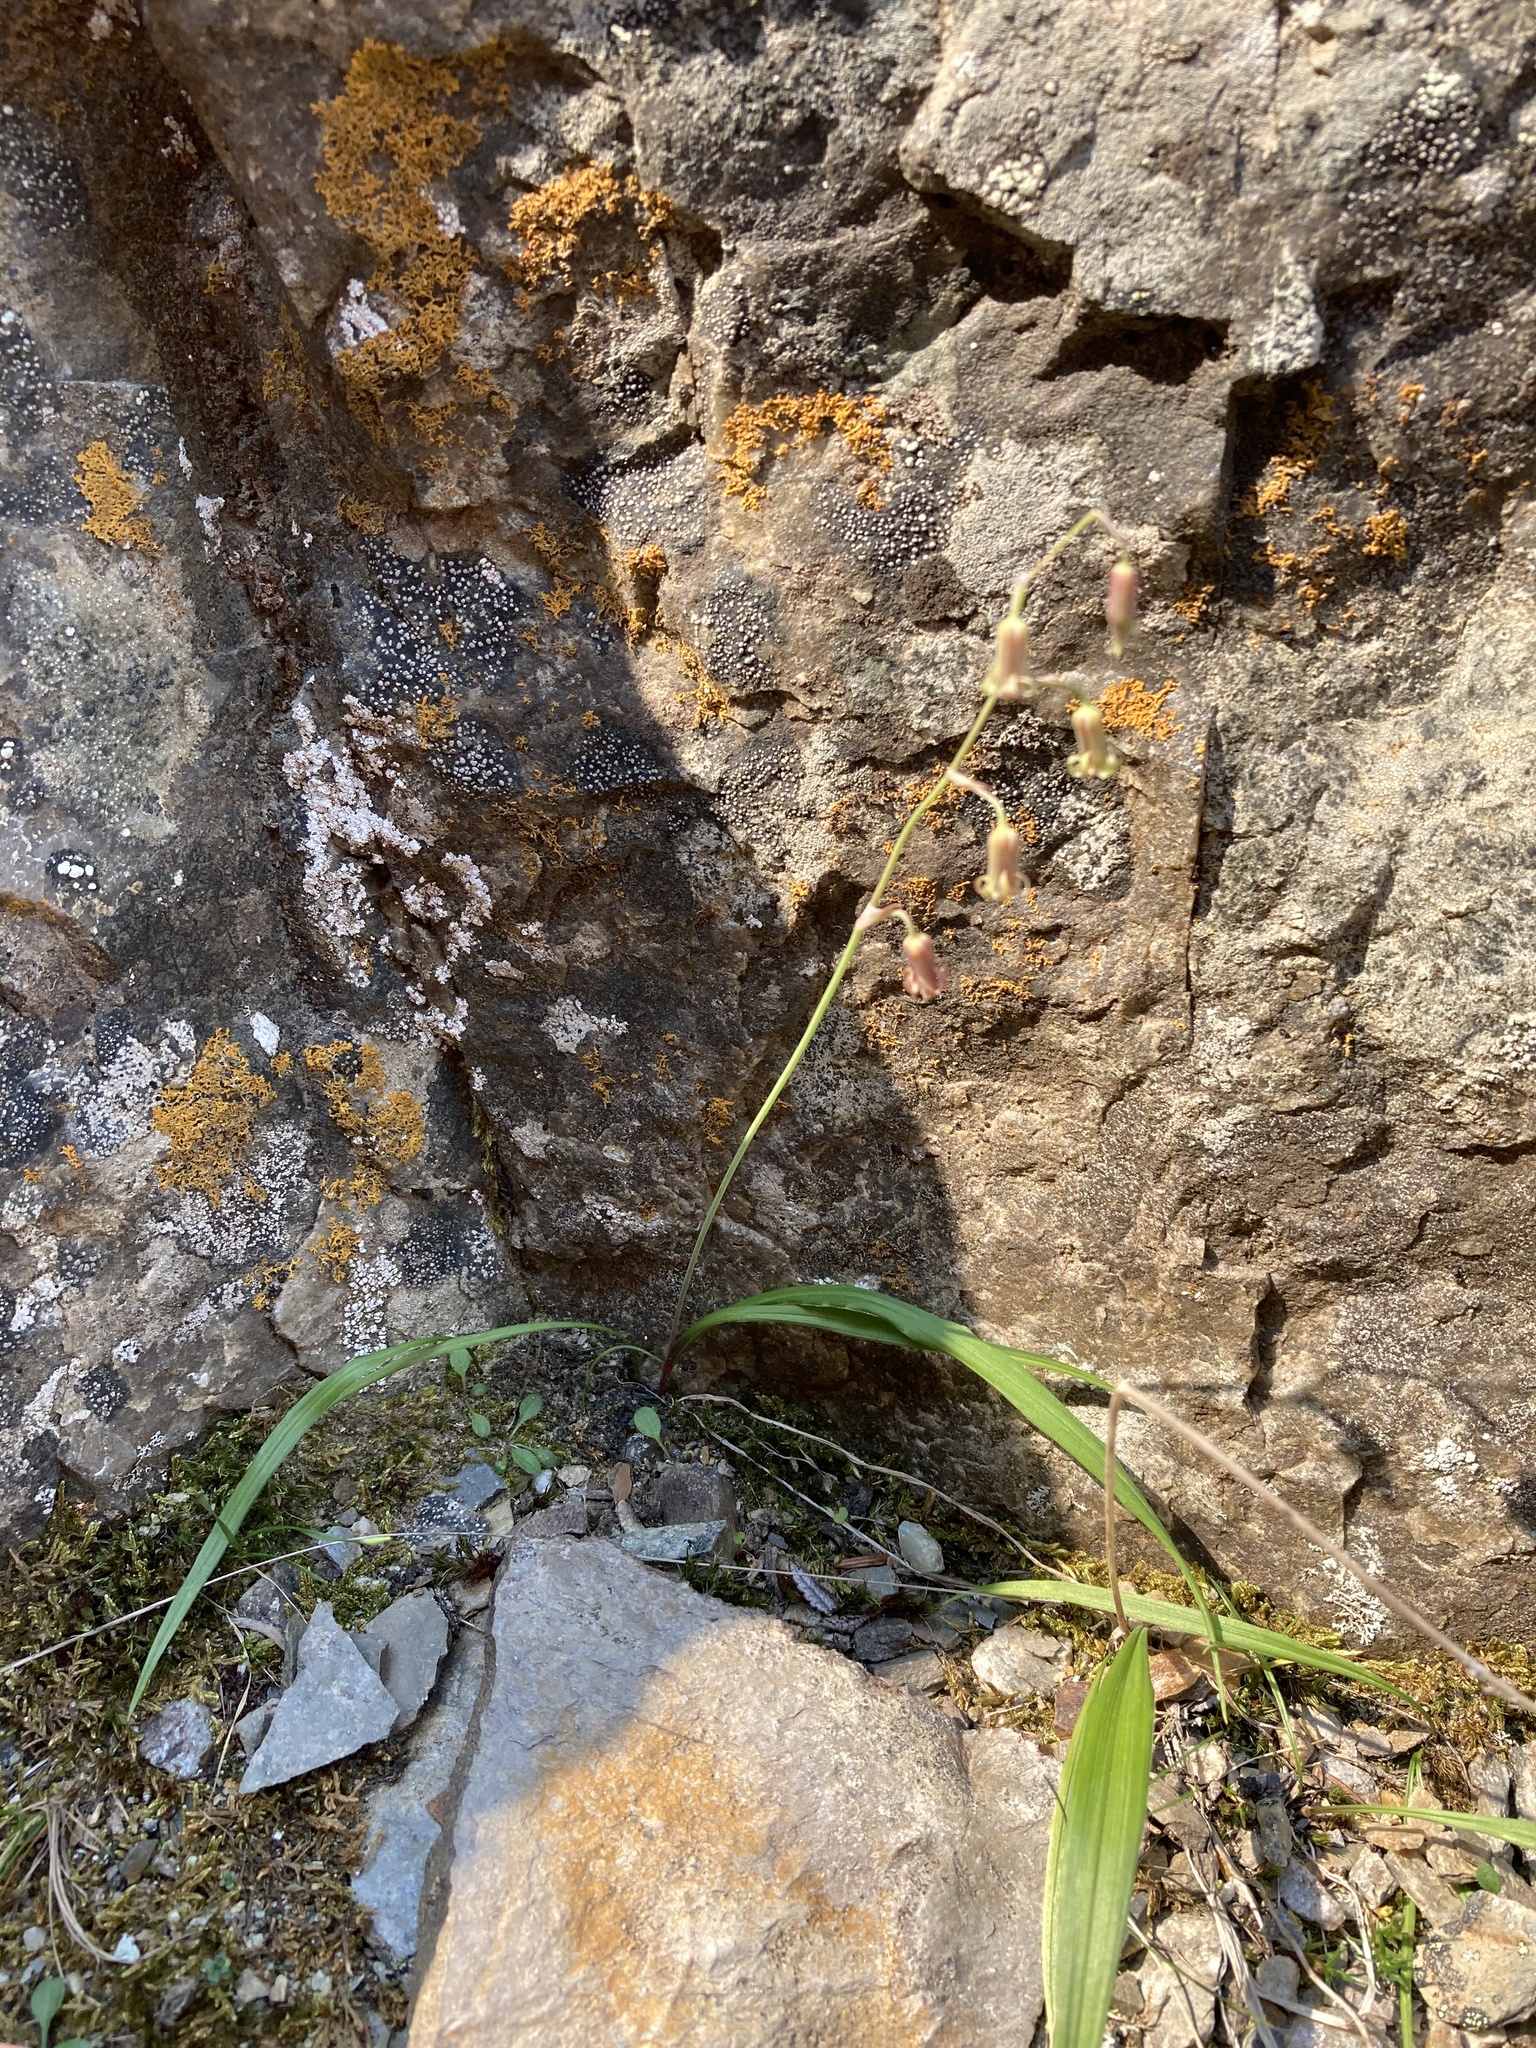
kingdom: Plantae
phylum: Tracheophyta
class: Liliopsida
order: Liliales
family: Melanthiaceae
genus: Anticlea
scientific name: Anticlea occidentalis
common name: Bronze-bells
